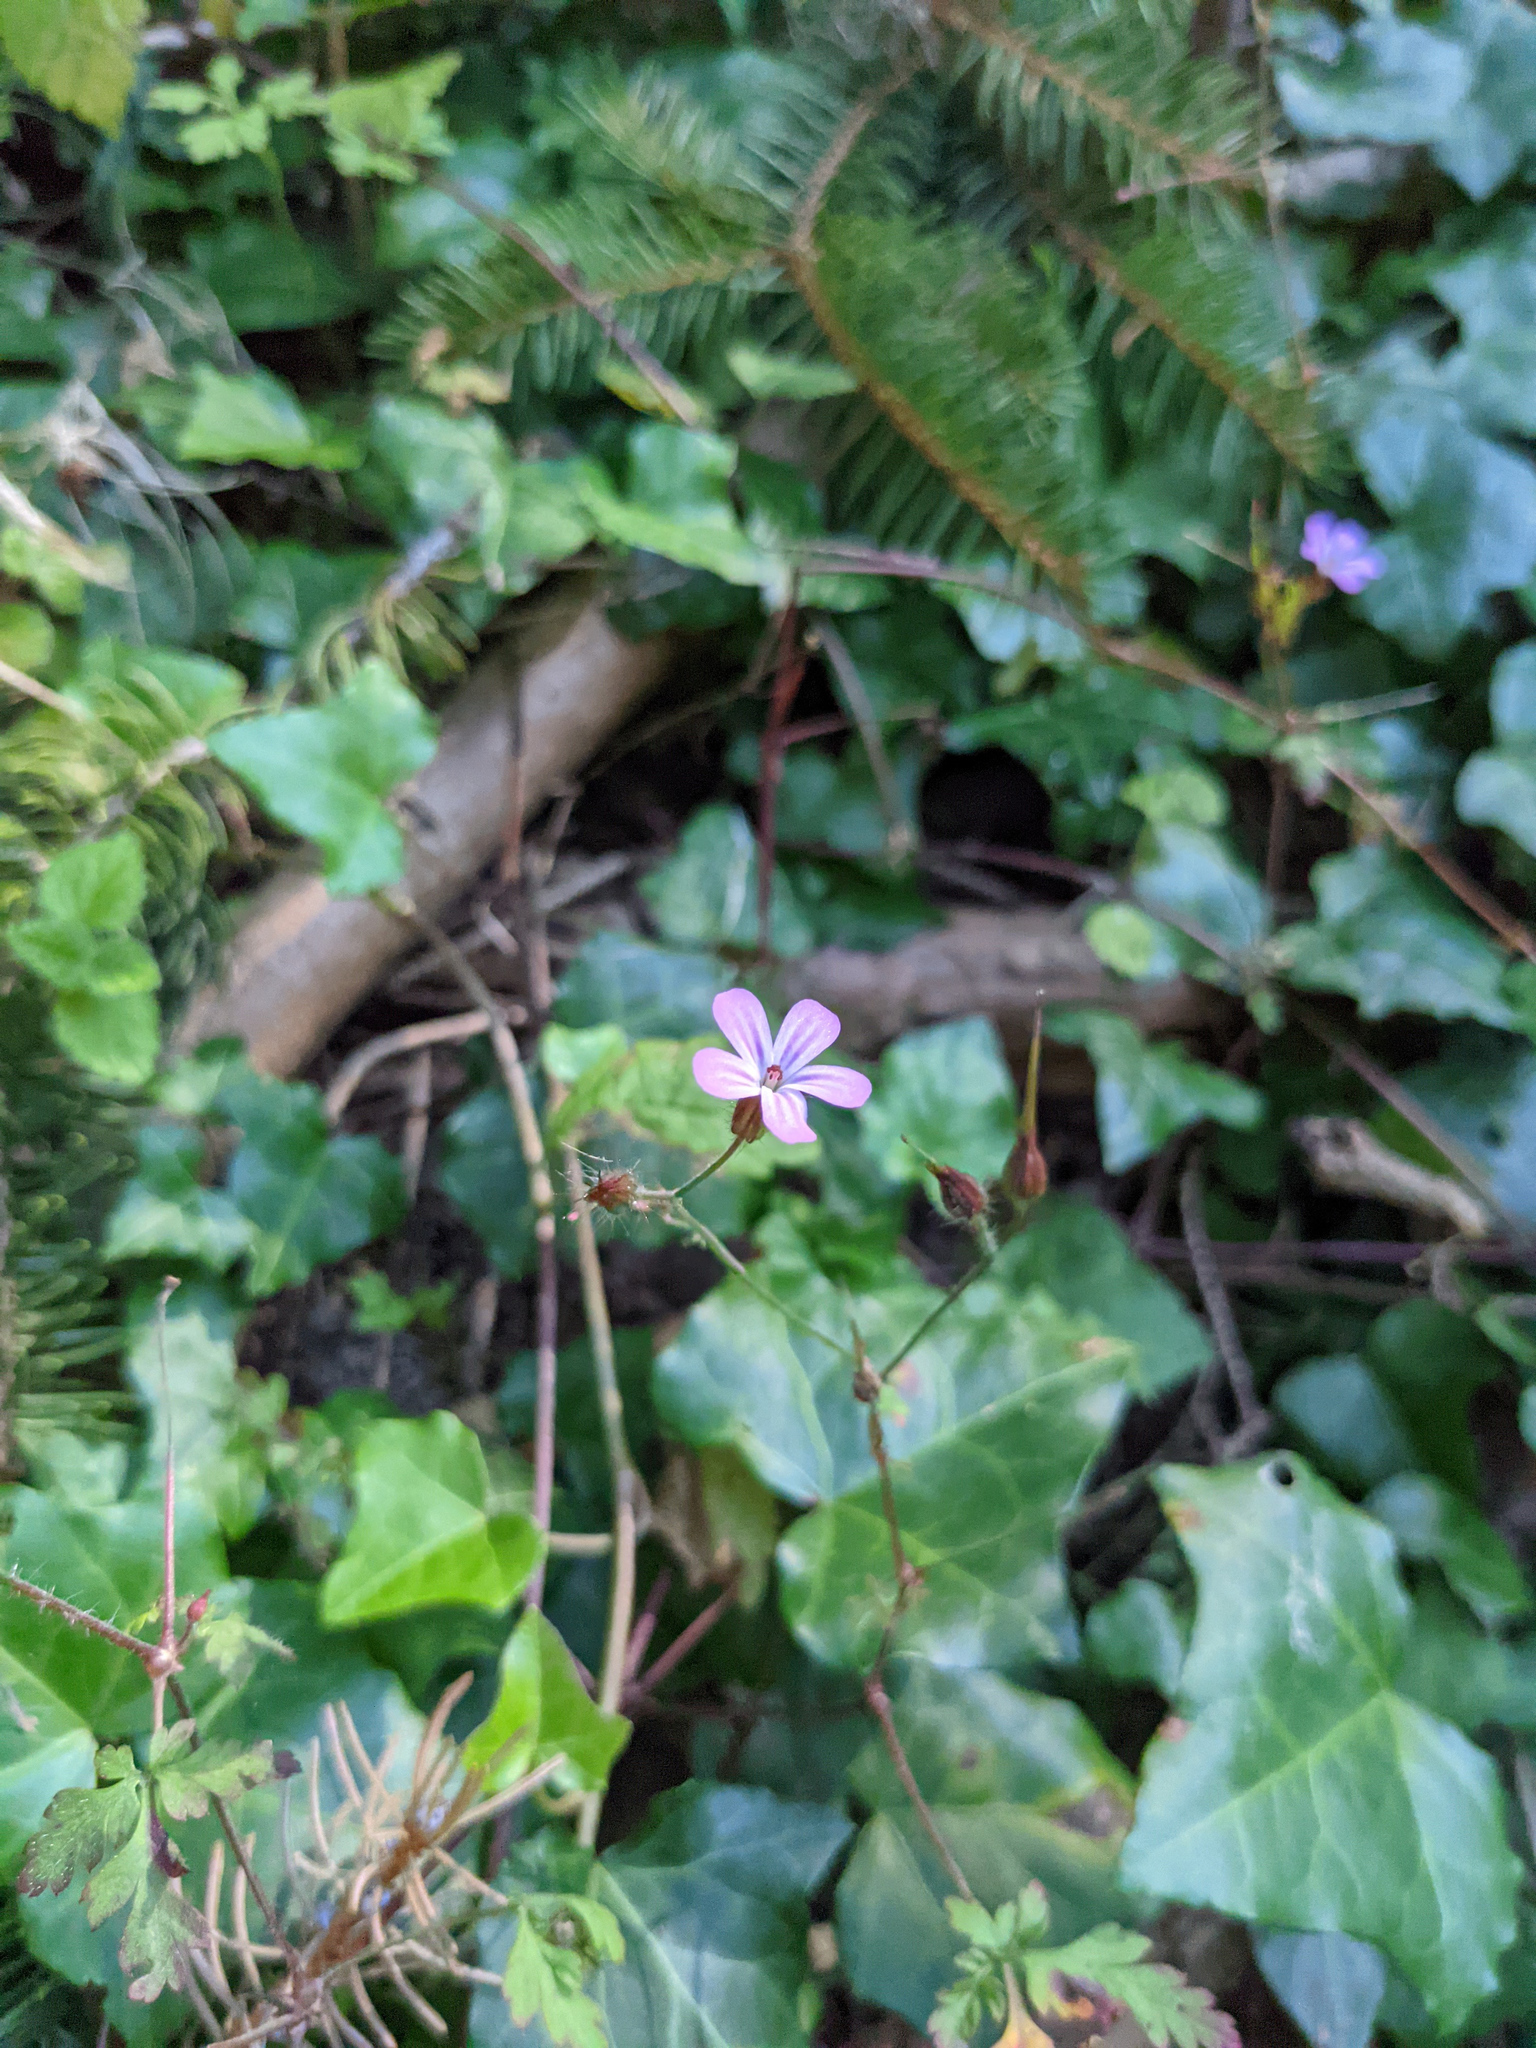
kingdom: Plantae
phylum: Tracheophyta
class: Magnoliopsida
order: Geraniales
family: Geraniaceae
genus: Geranium
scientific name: Geranium robertianum
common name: Herb-robert
